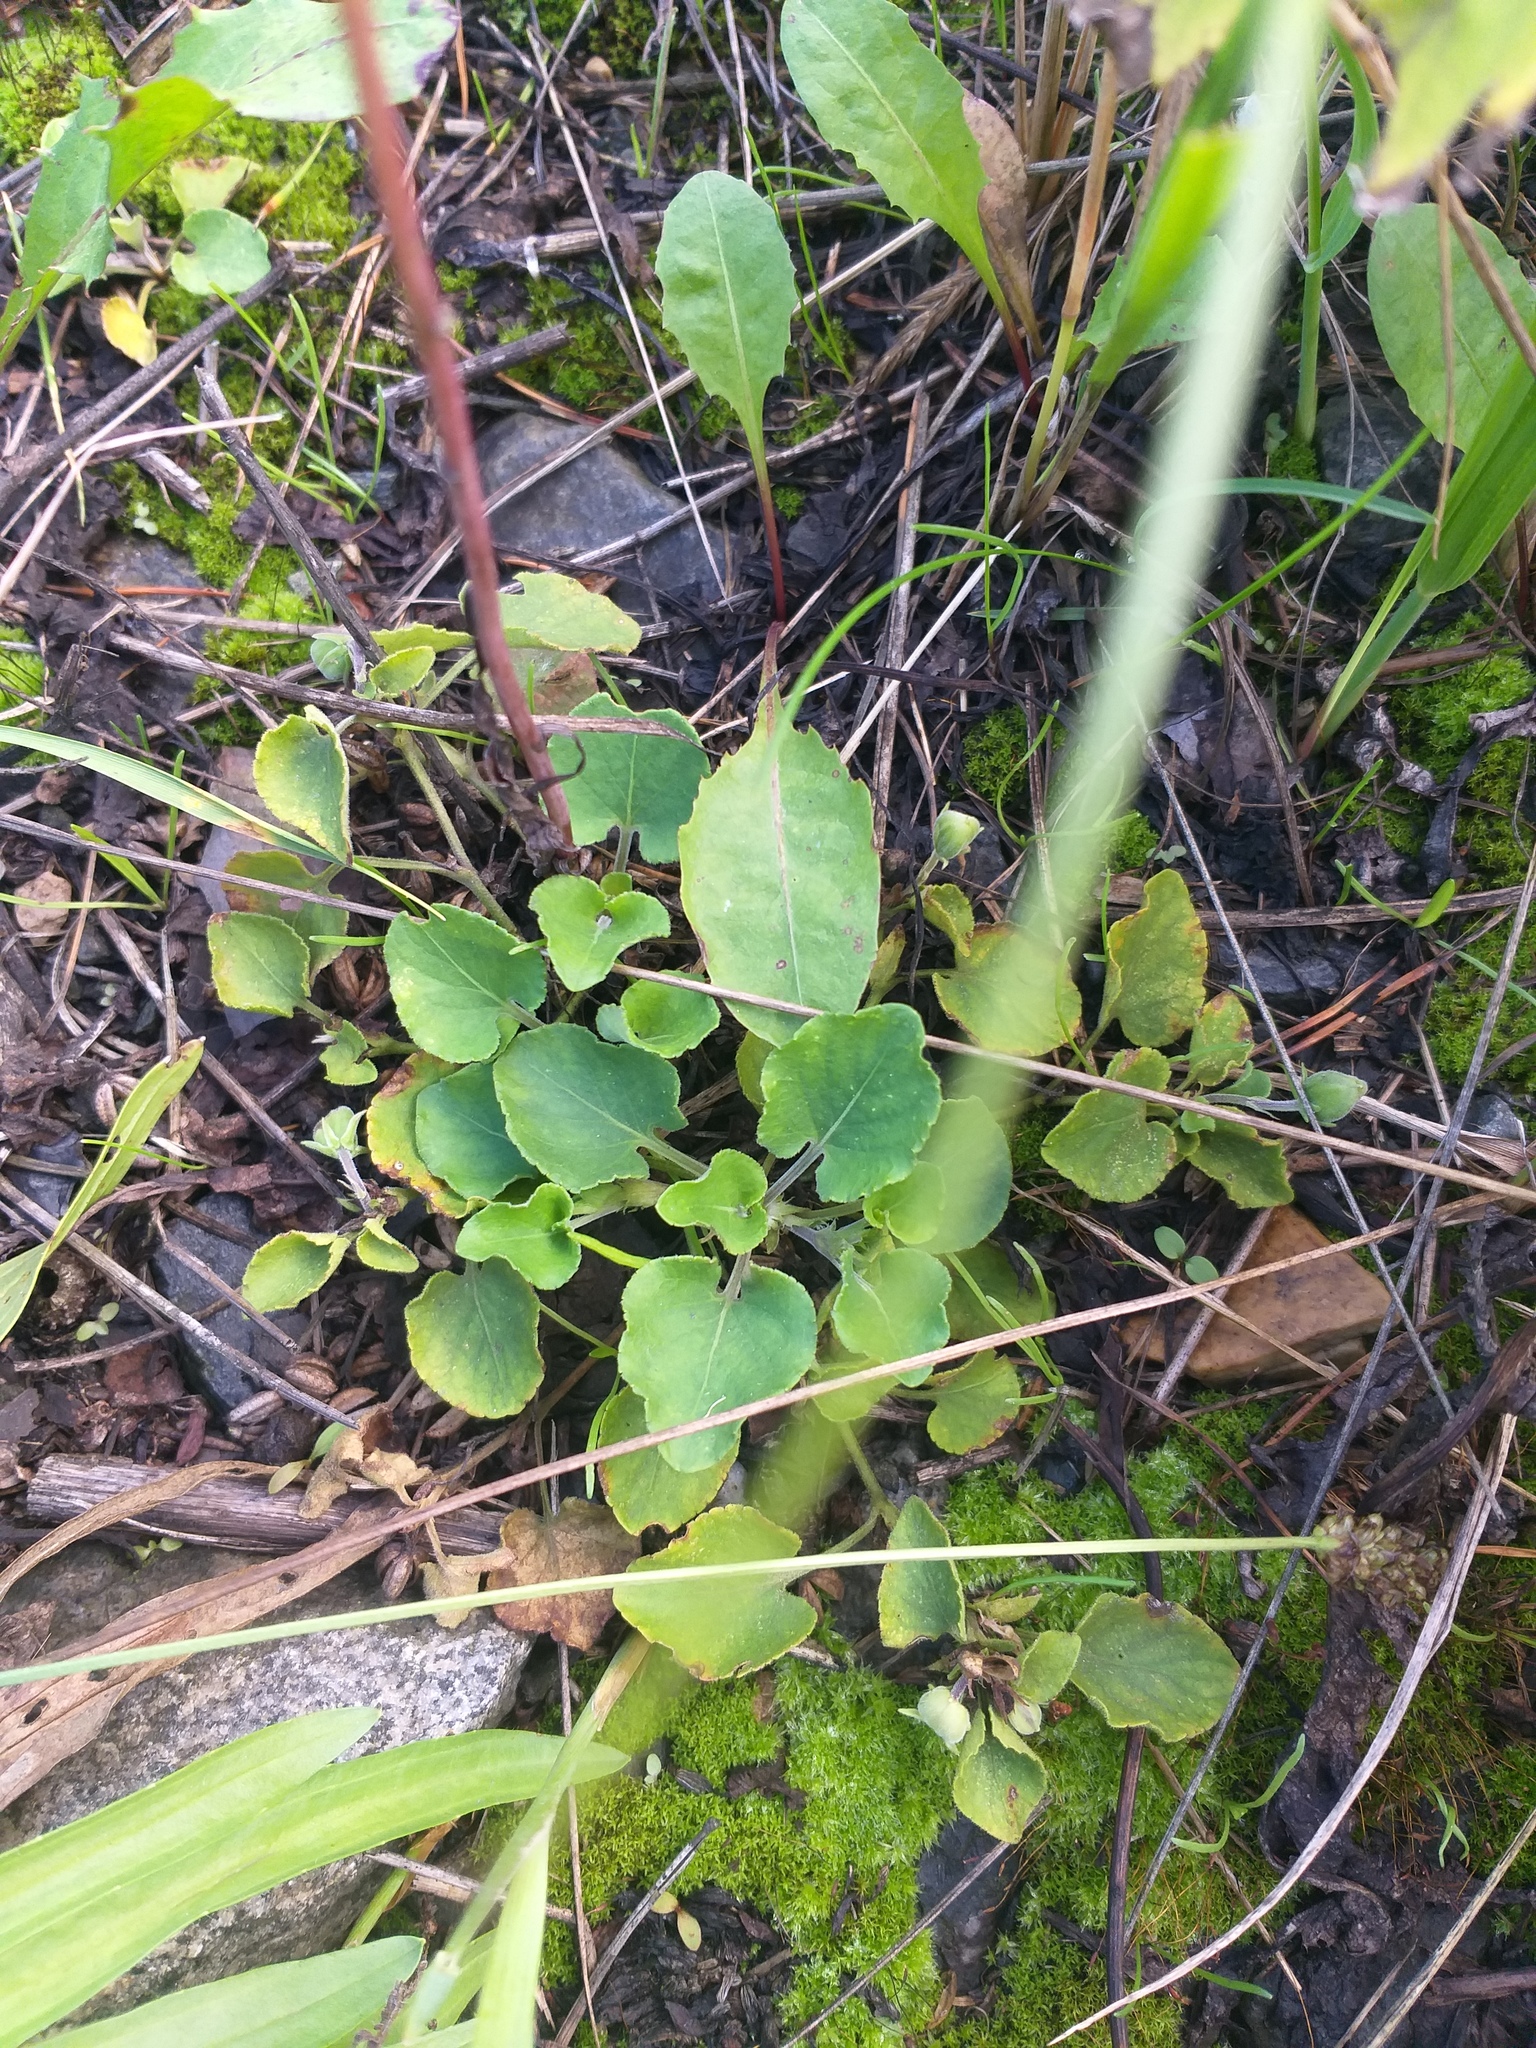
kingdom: Plantae
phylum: Tracheophyta
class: Magnoliopsida
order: Malpighiales
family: Violaceae
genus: Viola
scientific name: Viola rupestris
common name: Teesdale violet
